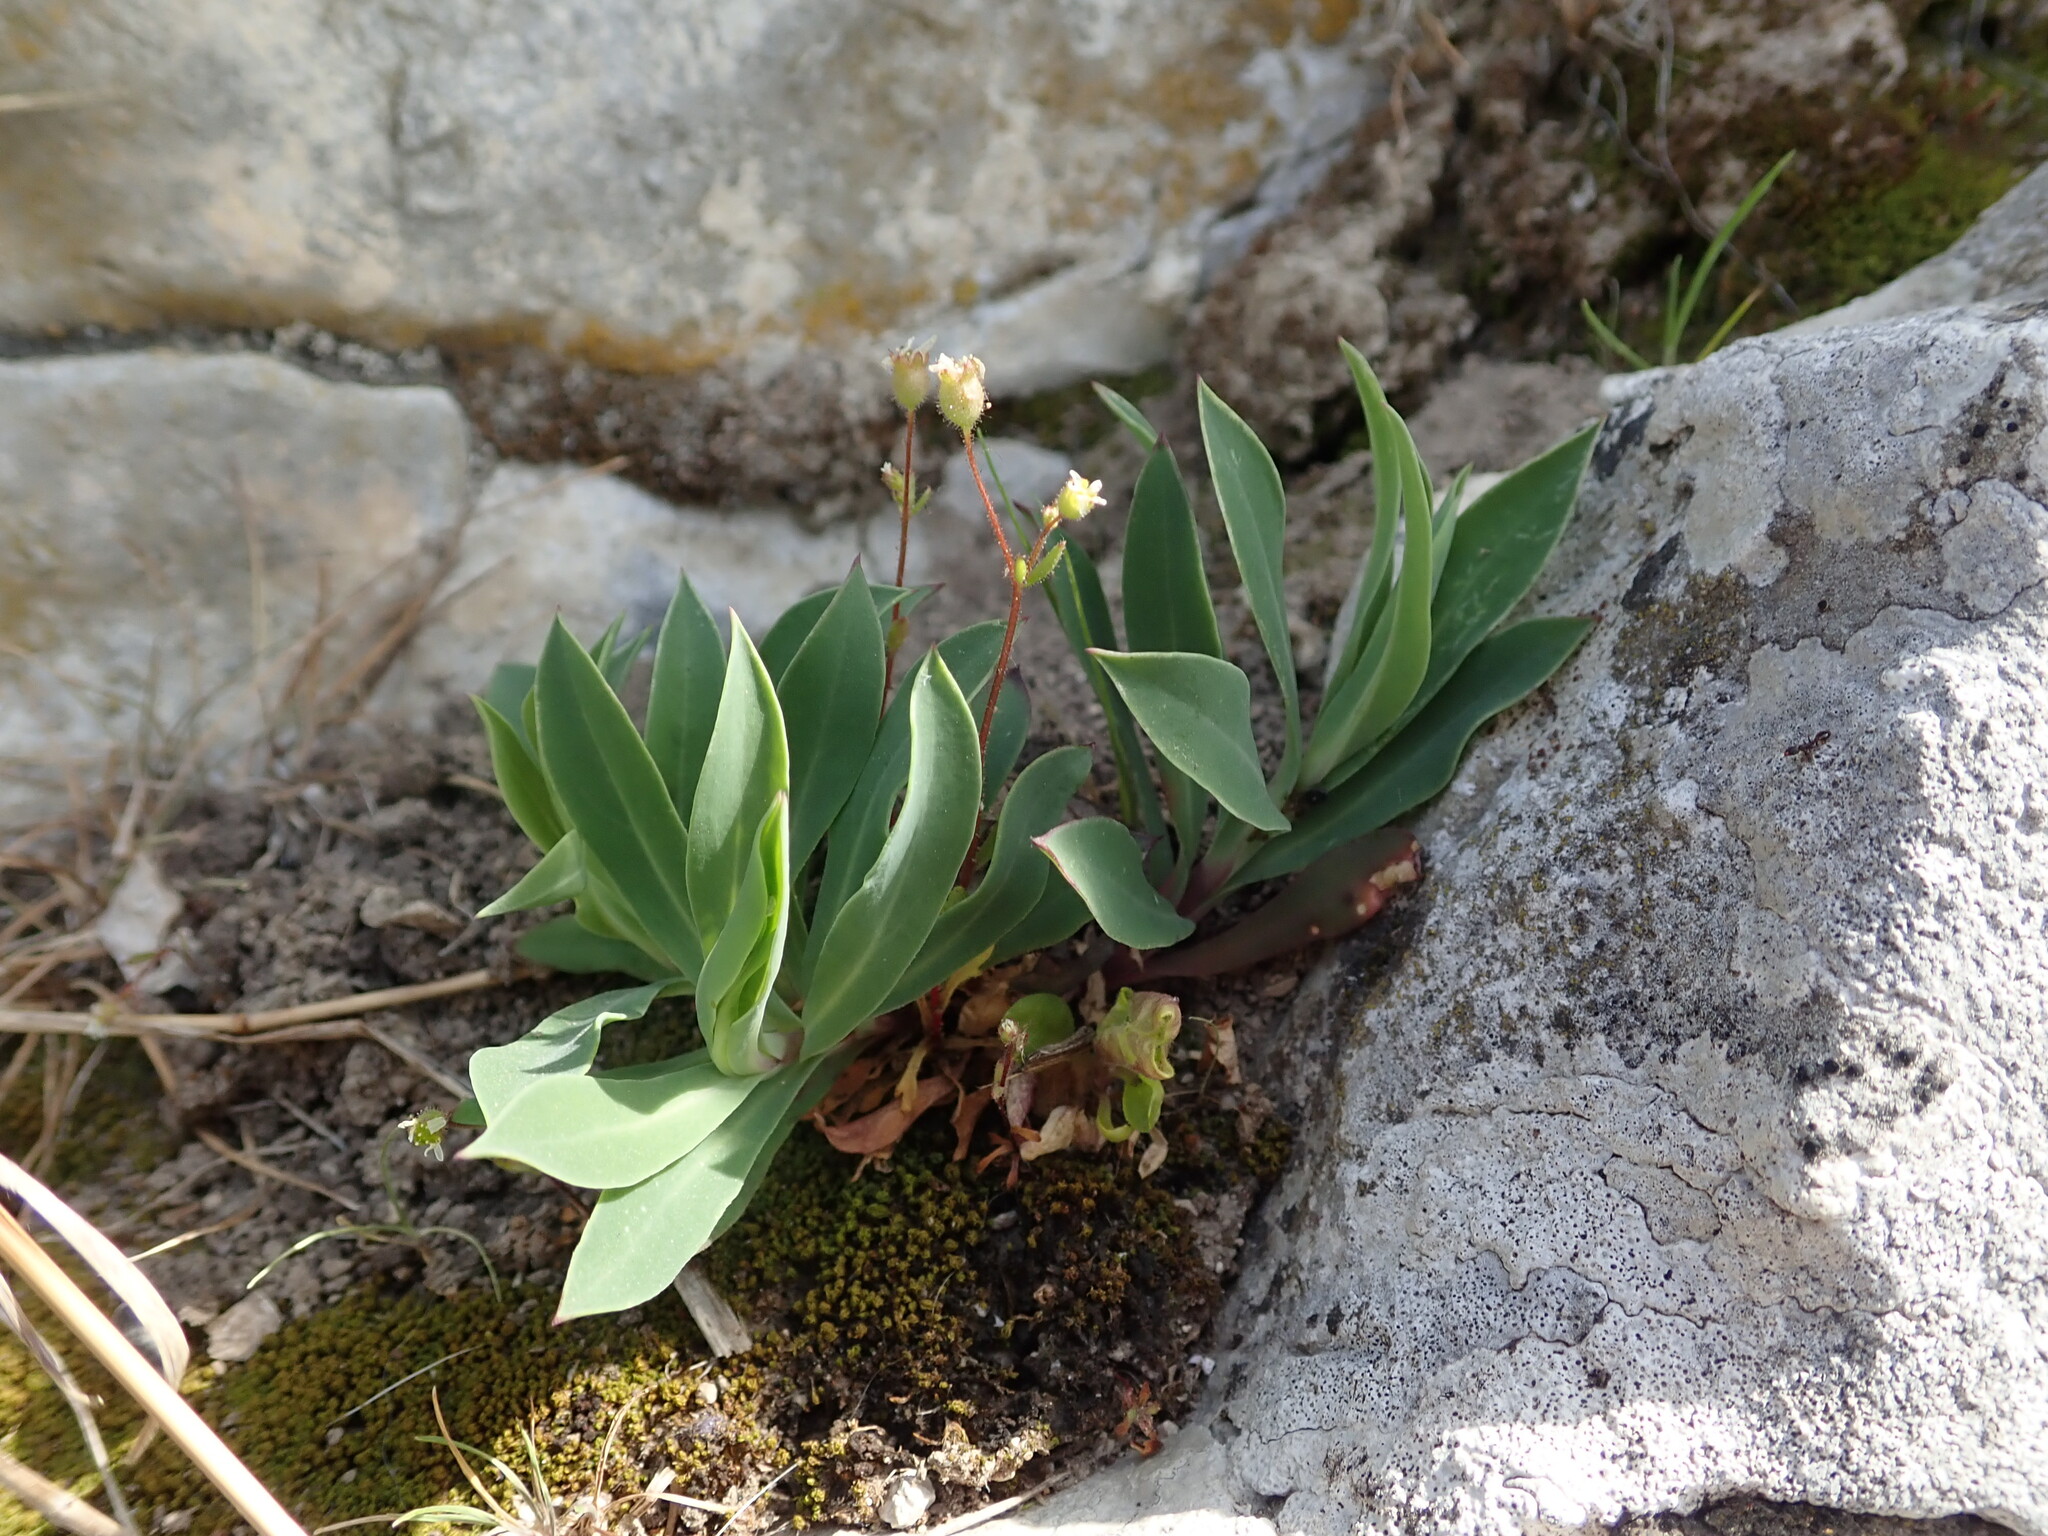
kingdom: Plantae
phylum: Tracheophyta
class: Magnoliopsida
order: Saxifragales
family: Saxifragaceae
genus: Saxifraga
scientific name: Saxifraga tridactylites
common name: Rue-leaved saxifrage
